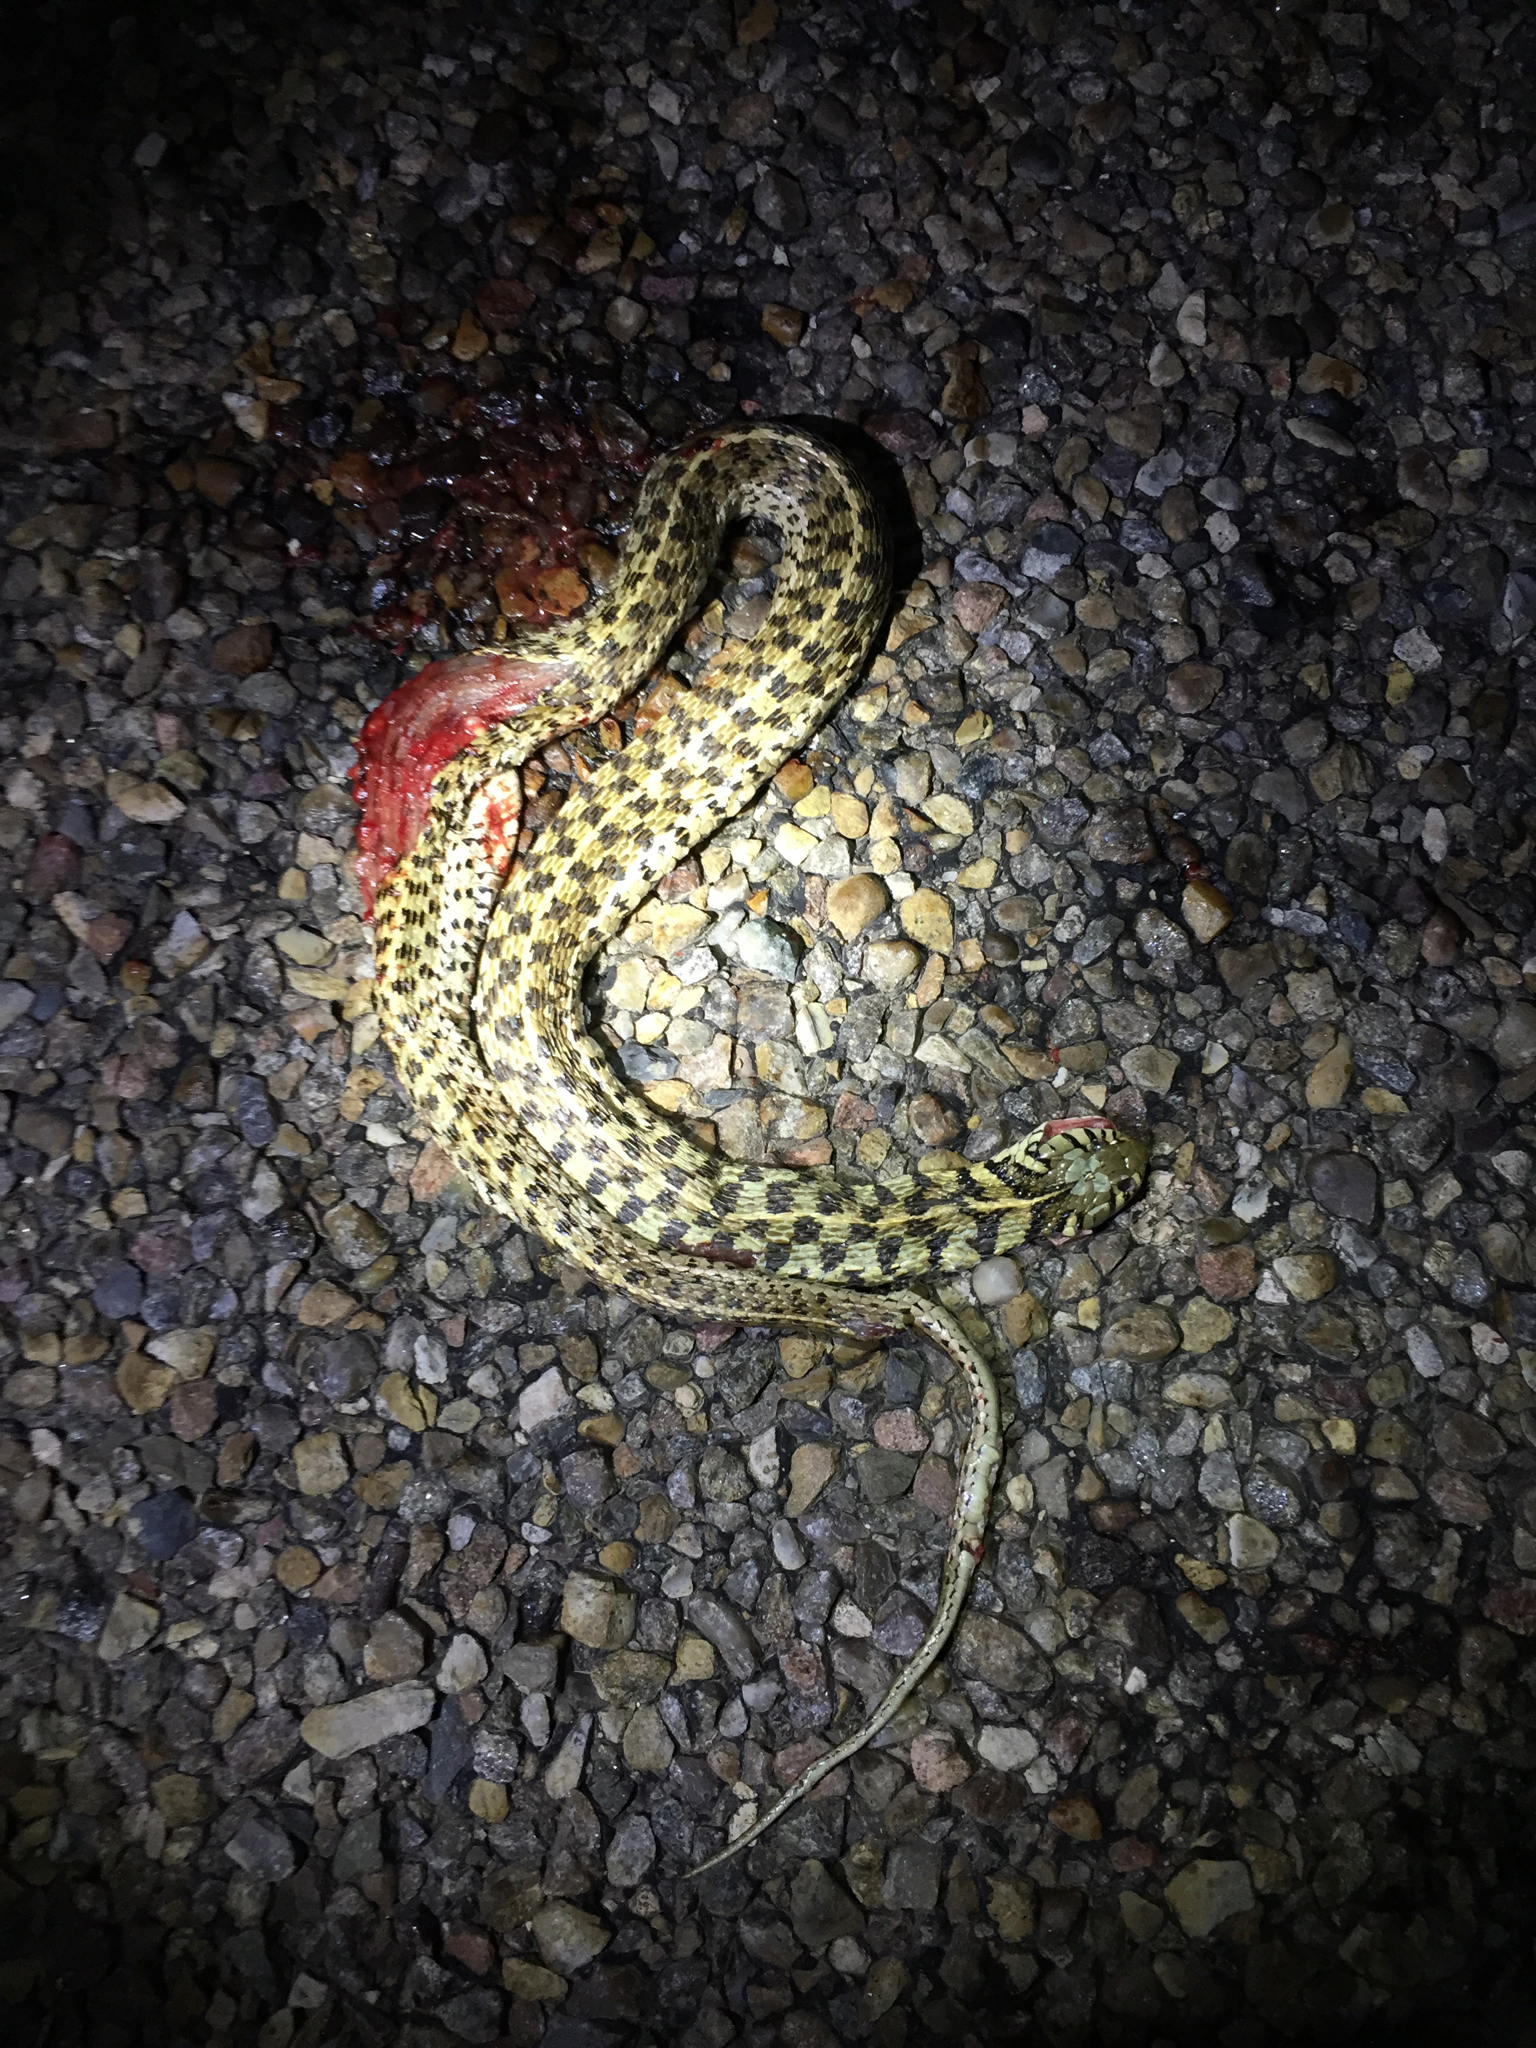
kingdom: Animalia
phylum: Chordata
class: Squamata
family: Colubridae
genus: Thamnophis
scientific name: Thamnophis marcianus
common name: Checkered garter snake
